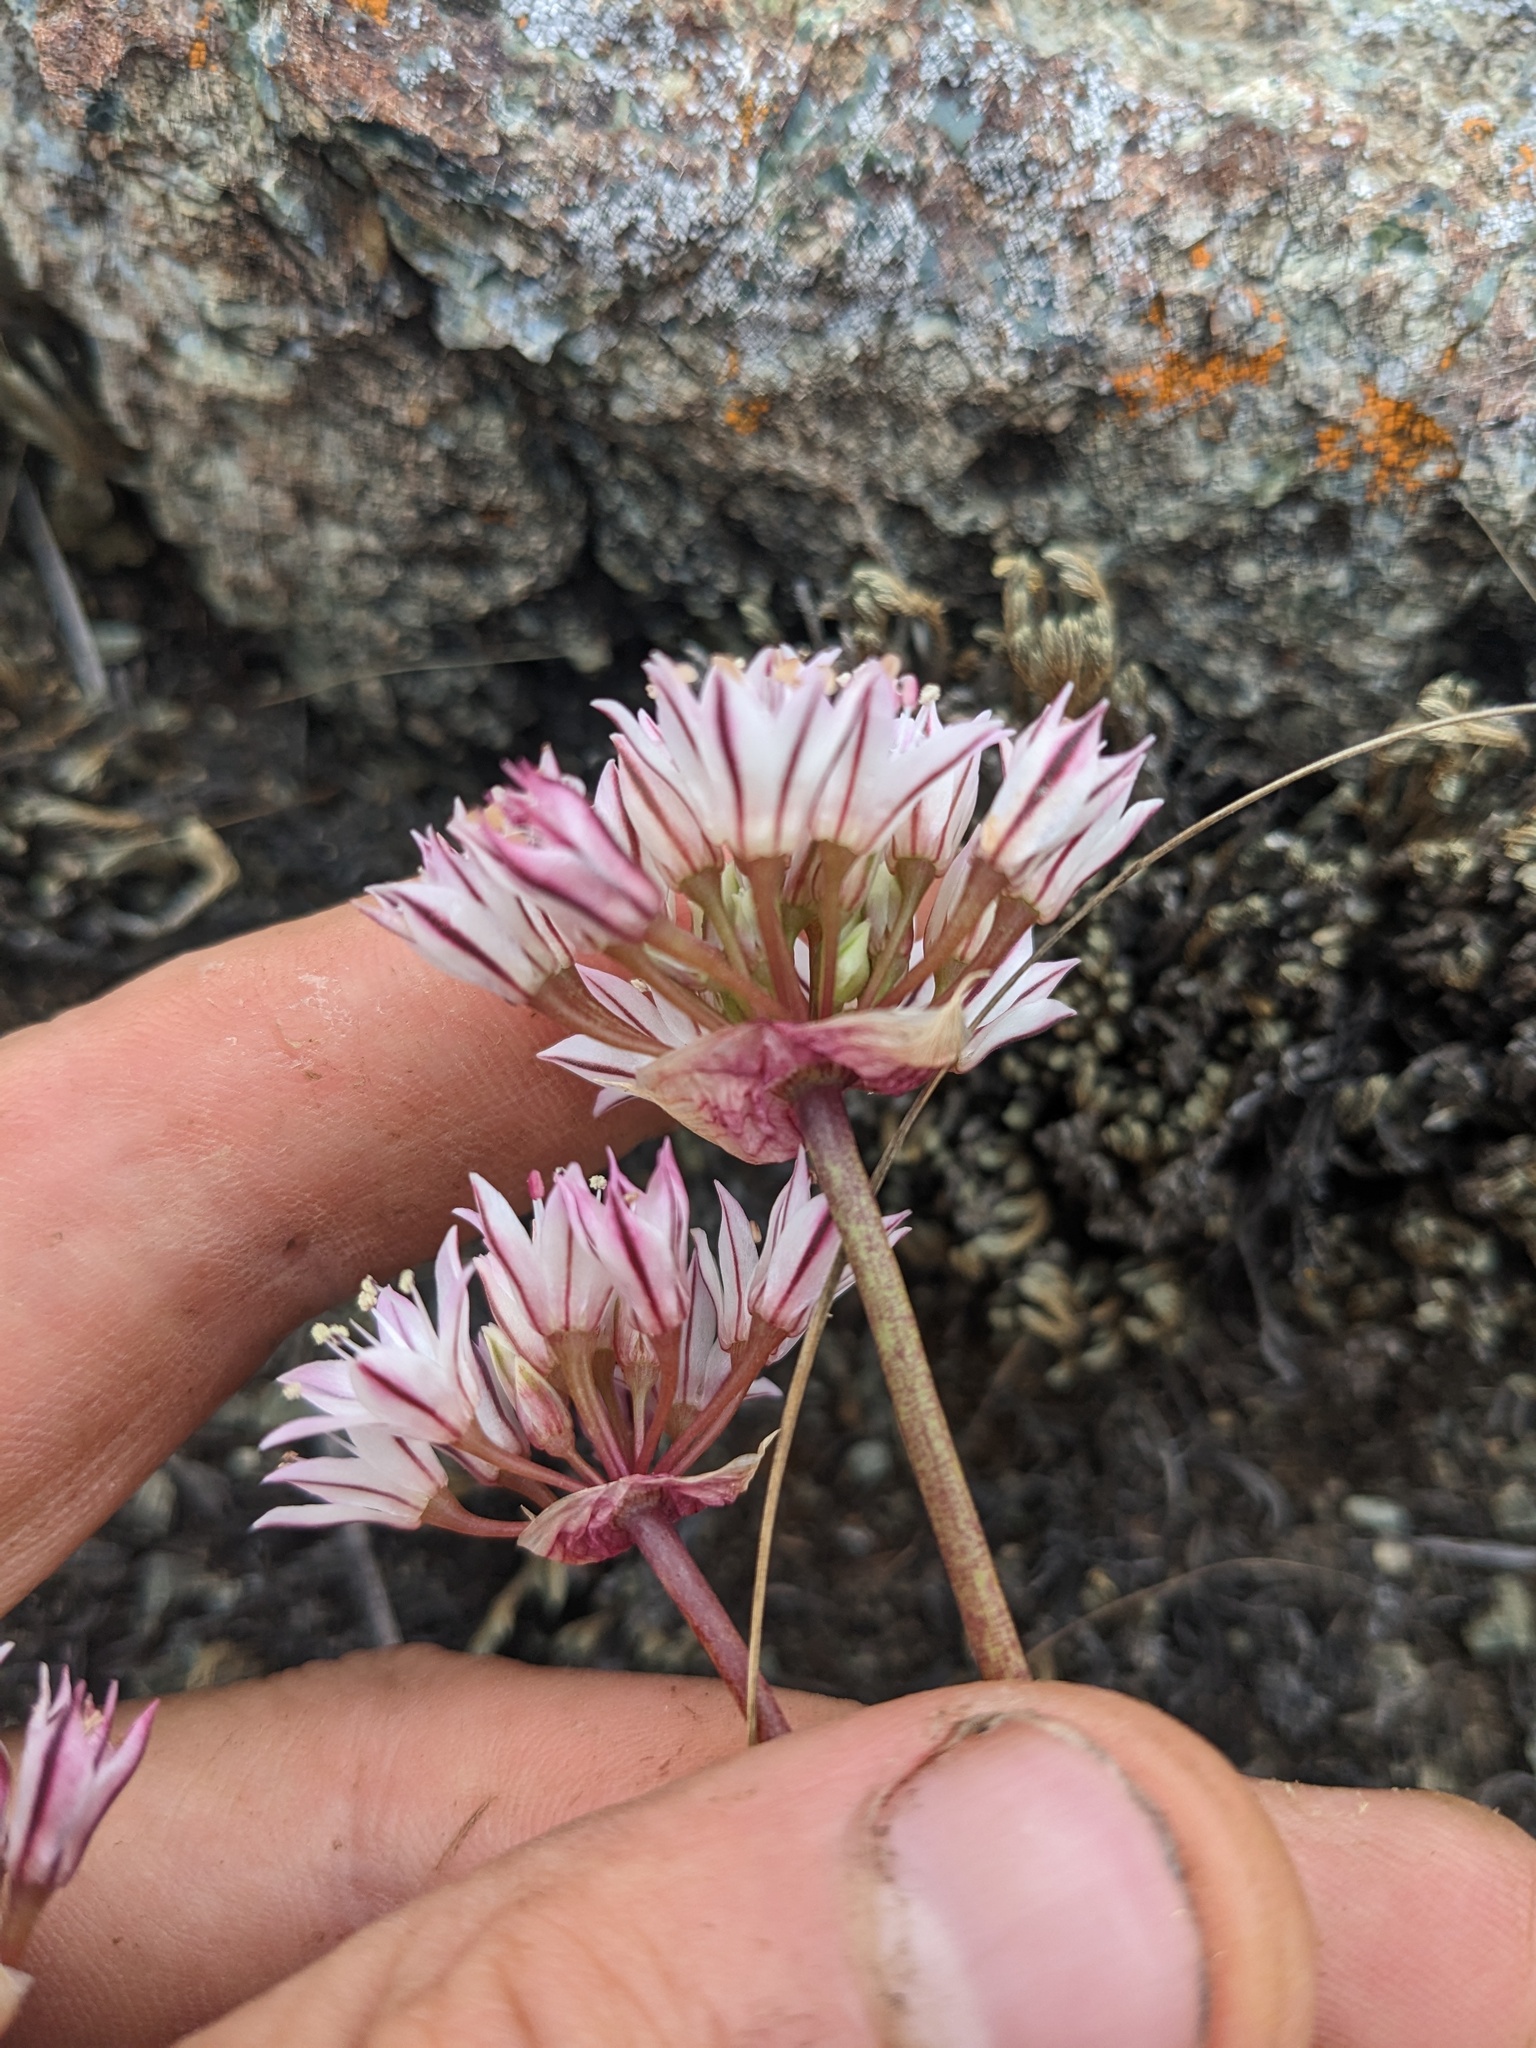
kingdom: Plantae
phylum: Tracheophyta
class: Liliopsida
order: Asparagales
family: Amaryllidaceae
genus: Allium
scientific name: Allium lacunosum
